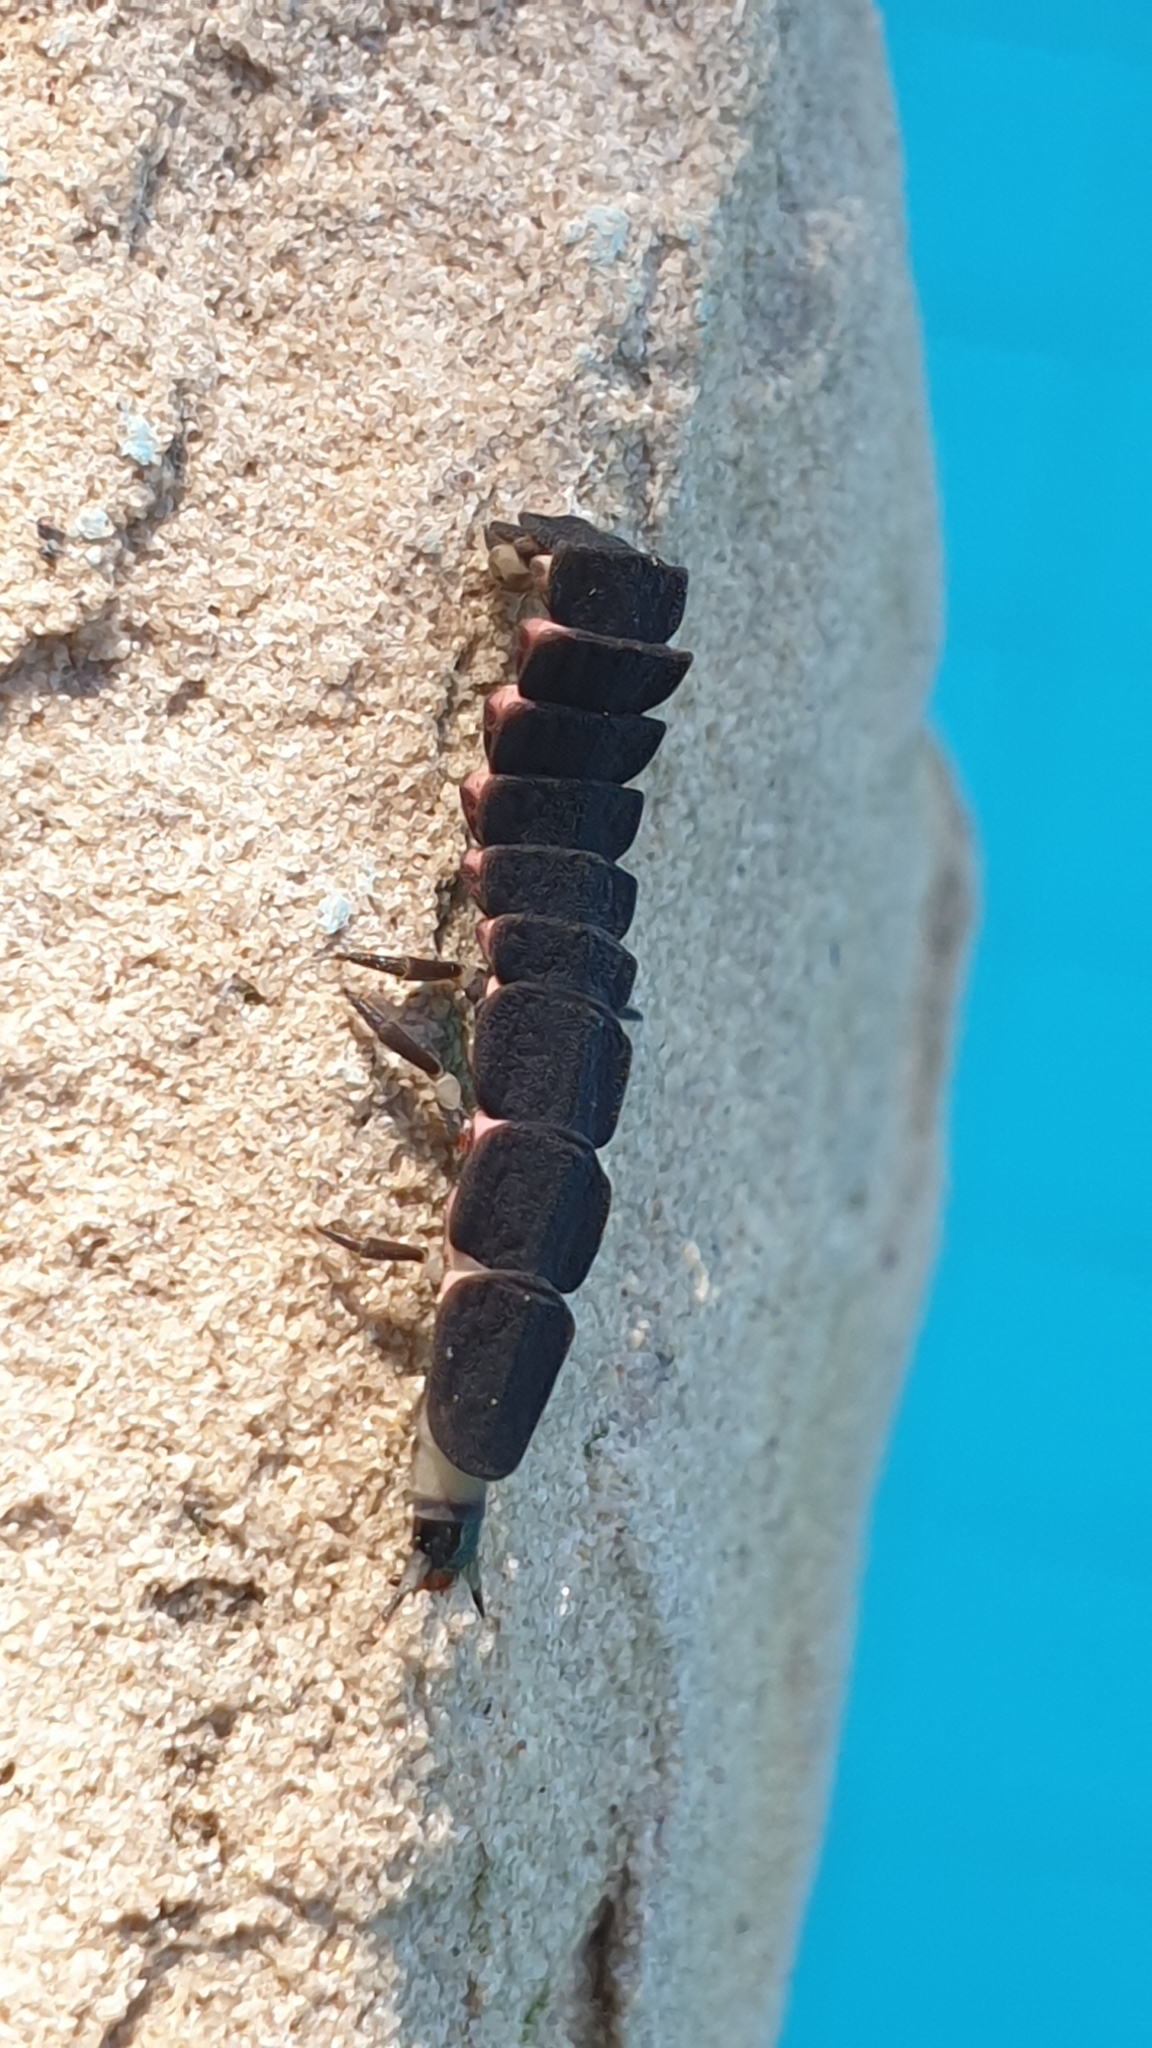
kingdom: Animalia
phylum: Arthropoda
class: Insecta
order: Coleoptera
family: Lampyridae
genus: Nyctophila
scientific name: Nyctophila reichii
